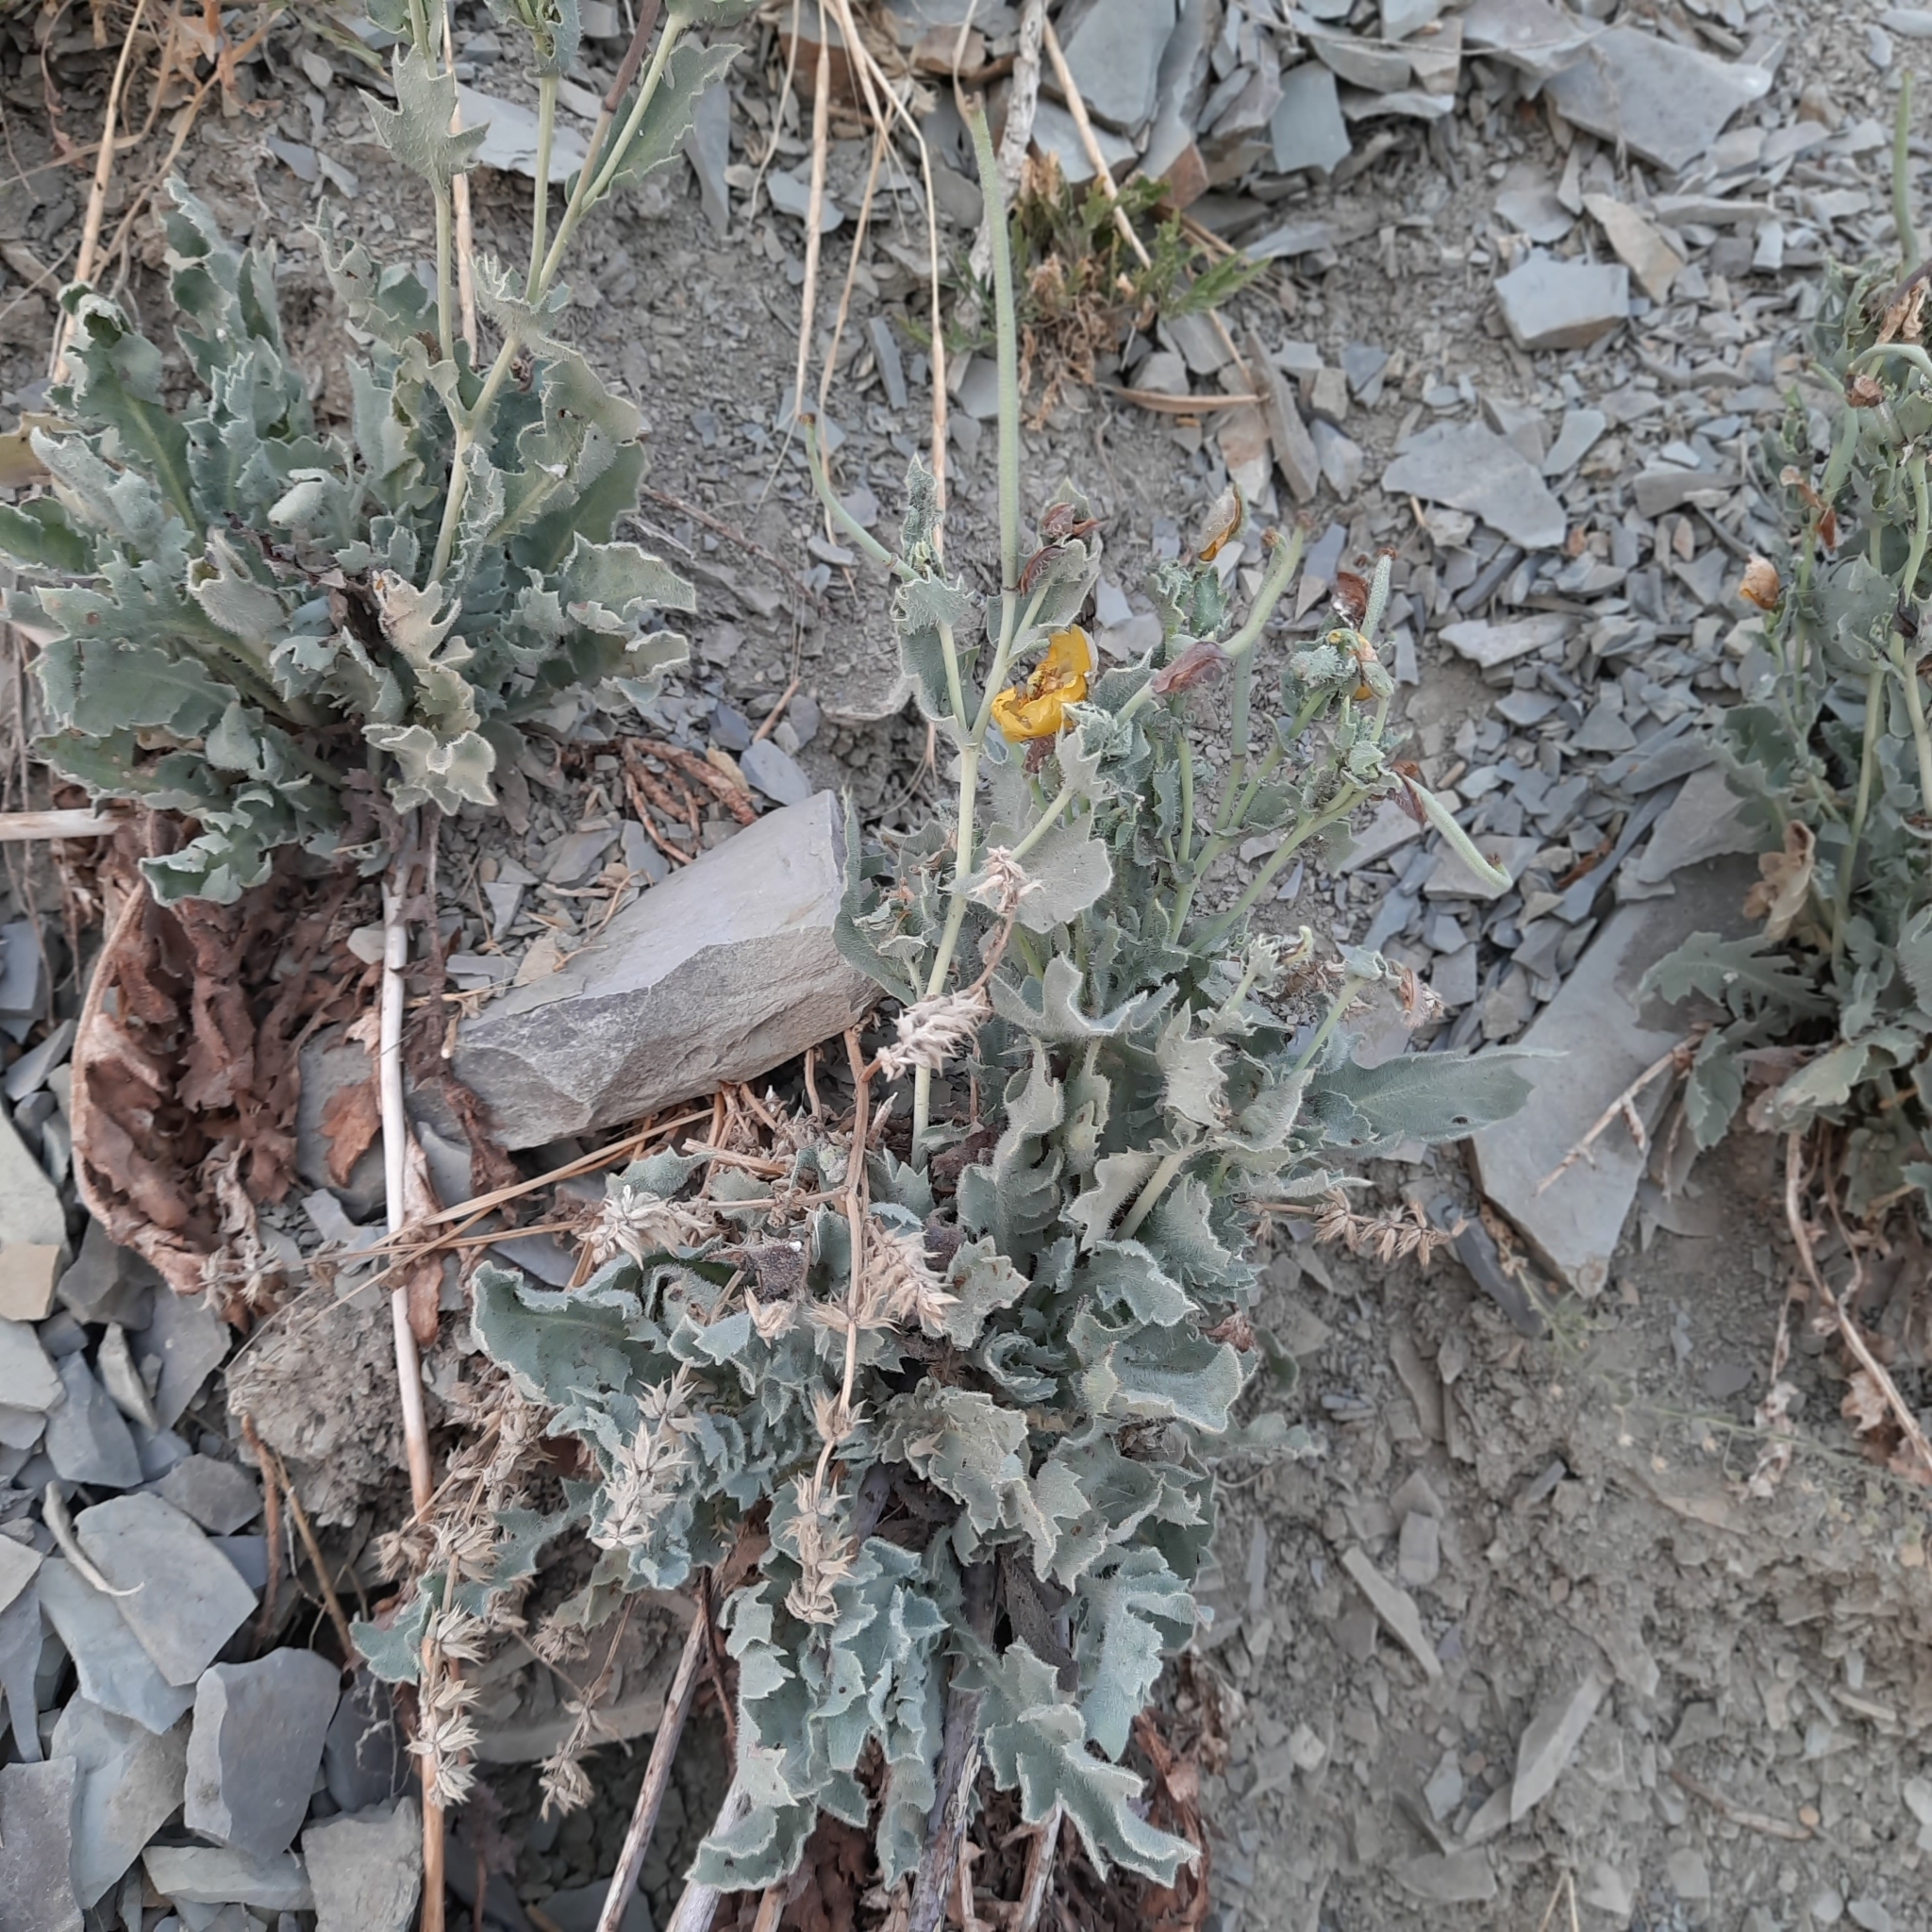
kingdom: Plantae
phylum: Tracheophyta
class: Magnoliopsida
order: Ranunculales
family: Papaveraceae
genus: Glaucium
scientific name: Glaucium flavum
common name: Yellow horned-poppy
